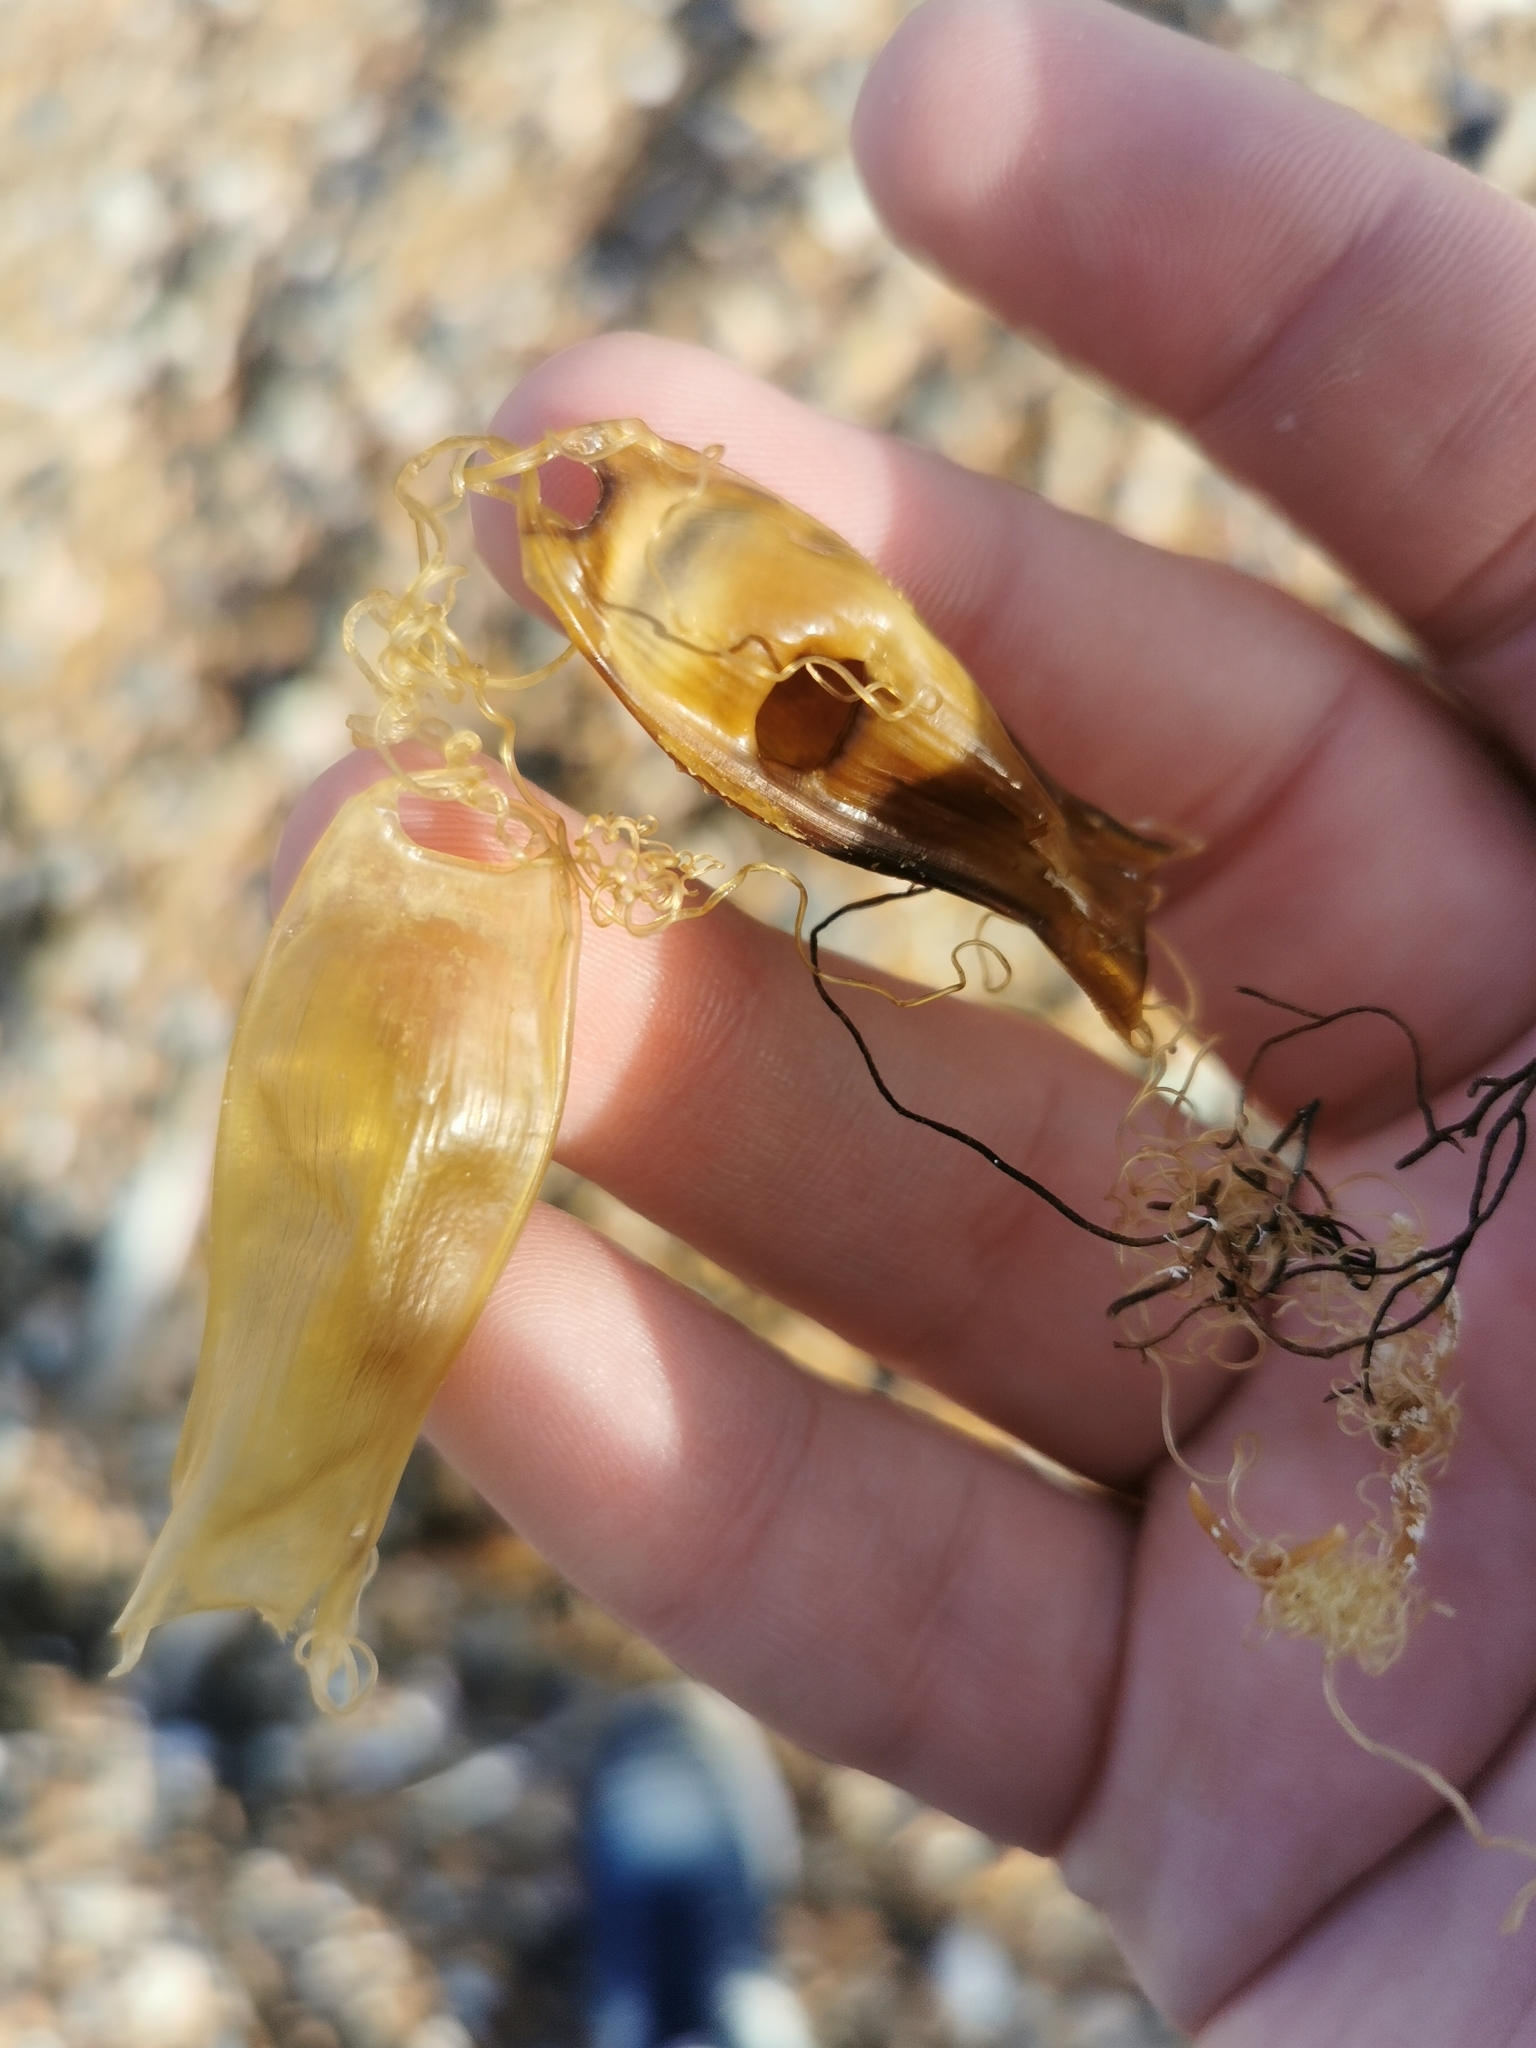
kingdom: Animalia
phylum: Chordata
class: Elasmobranchii
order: Carcharhiniformes
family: Scyliorhinidae
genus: Scyliorhinus
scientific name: Scyliorhinus canicula
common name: Lesser spotted dogfish
